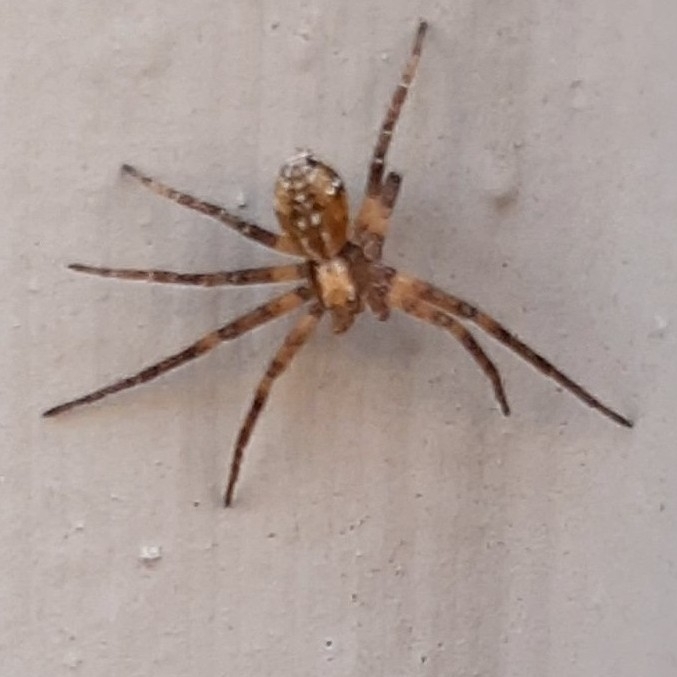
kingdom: Animalia
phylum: Arthropoda
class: Arachnida
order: Araneae
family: Philodromidae
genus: Philodromus
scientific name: Philodromus
